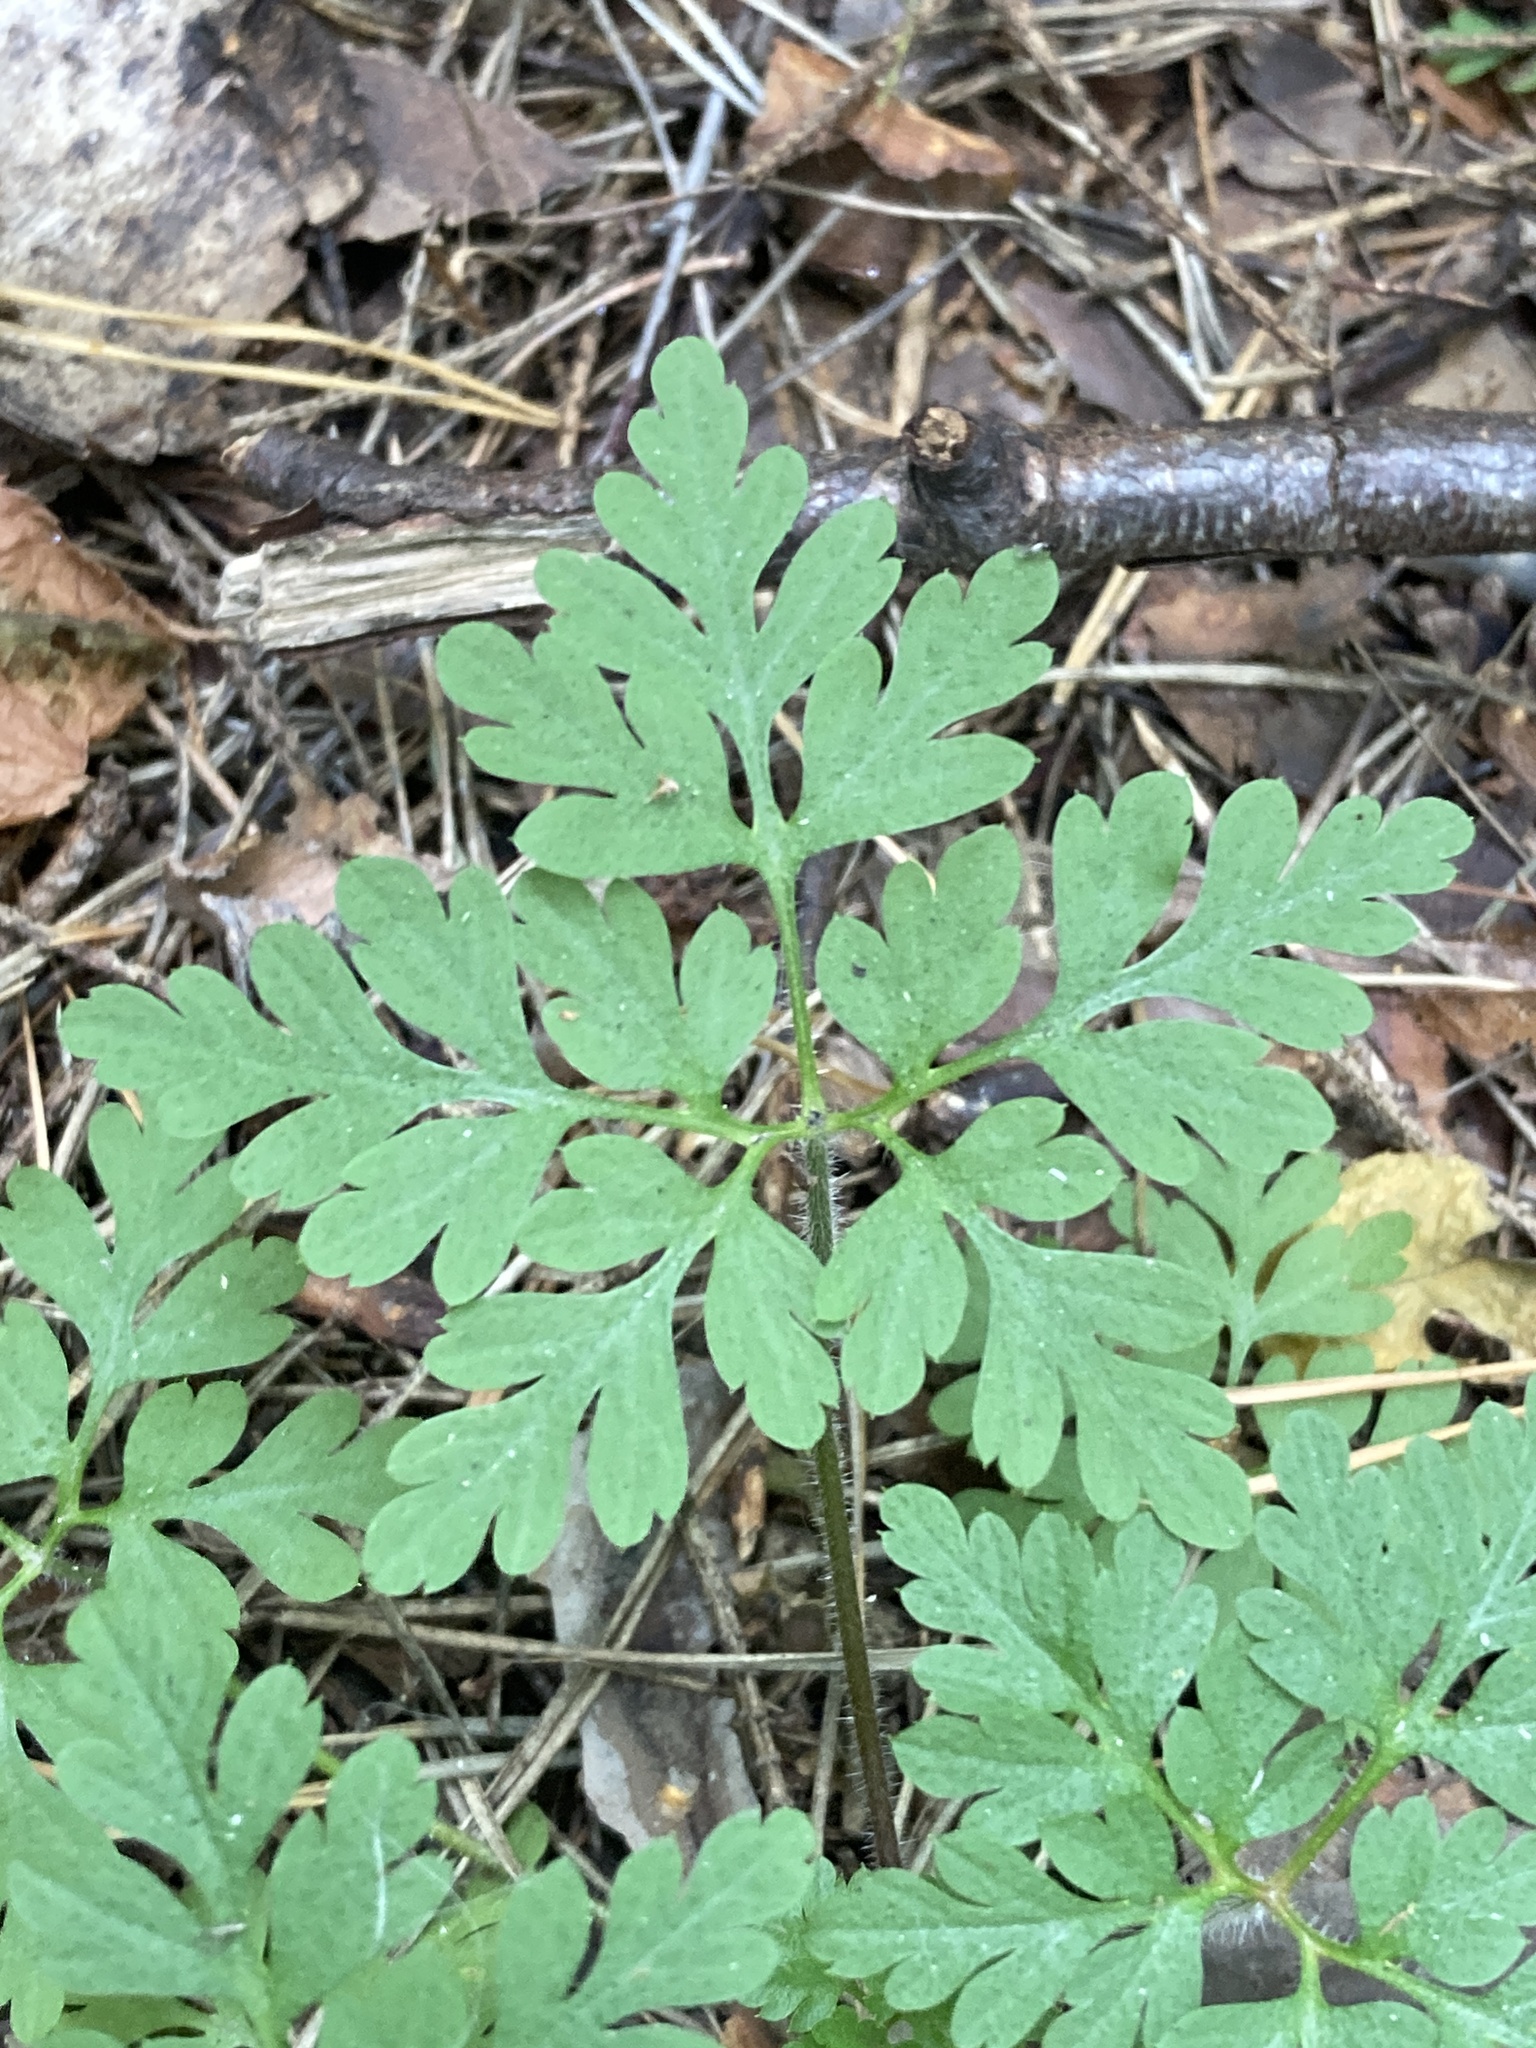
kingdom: Plantae
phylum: Tracheophyta
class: Magnoliopsida
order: Geraniales
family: Geraniaceae
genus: Geranium
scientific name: Geranium robertianum
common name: Herb-robert
